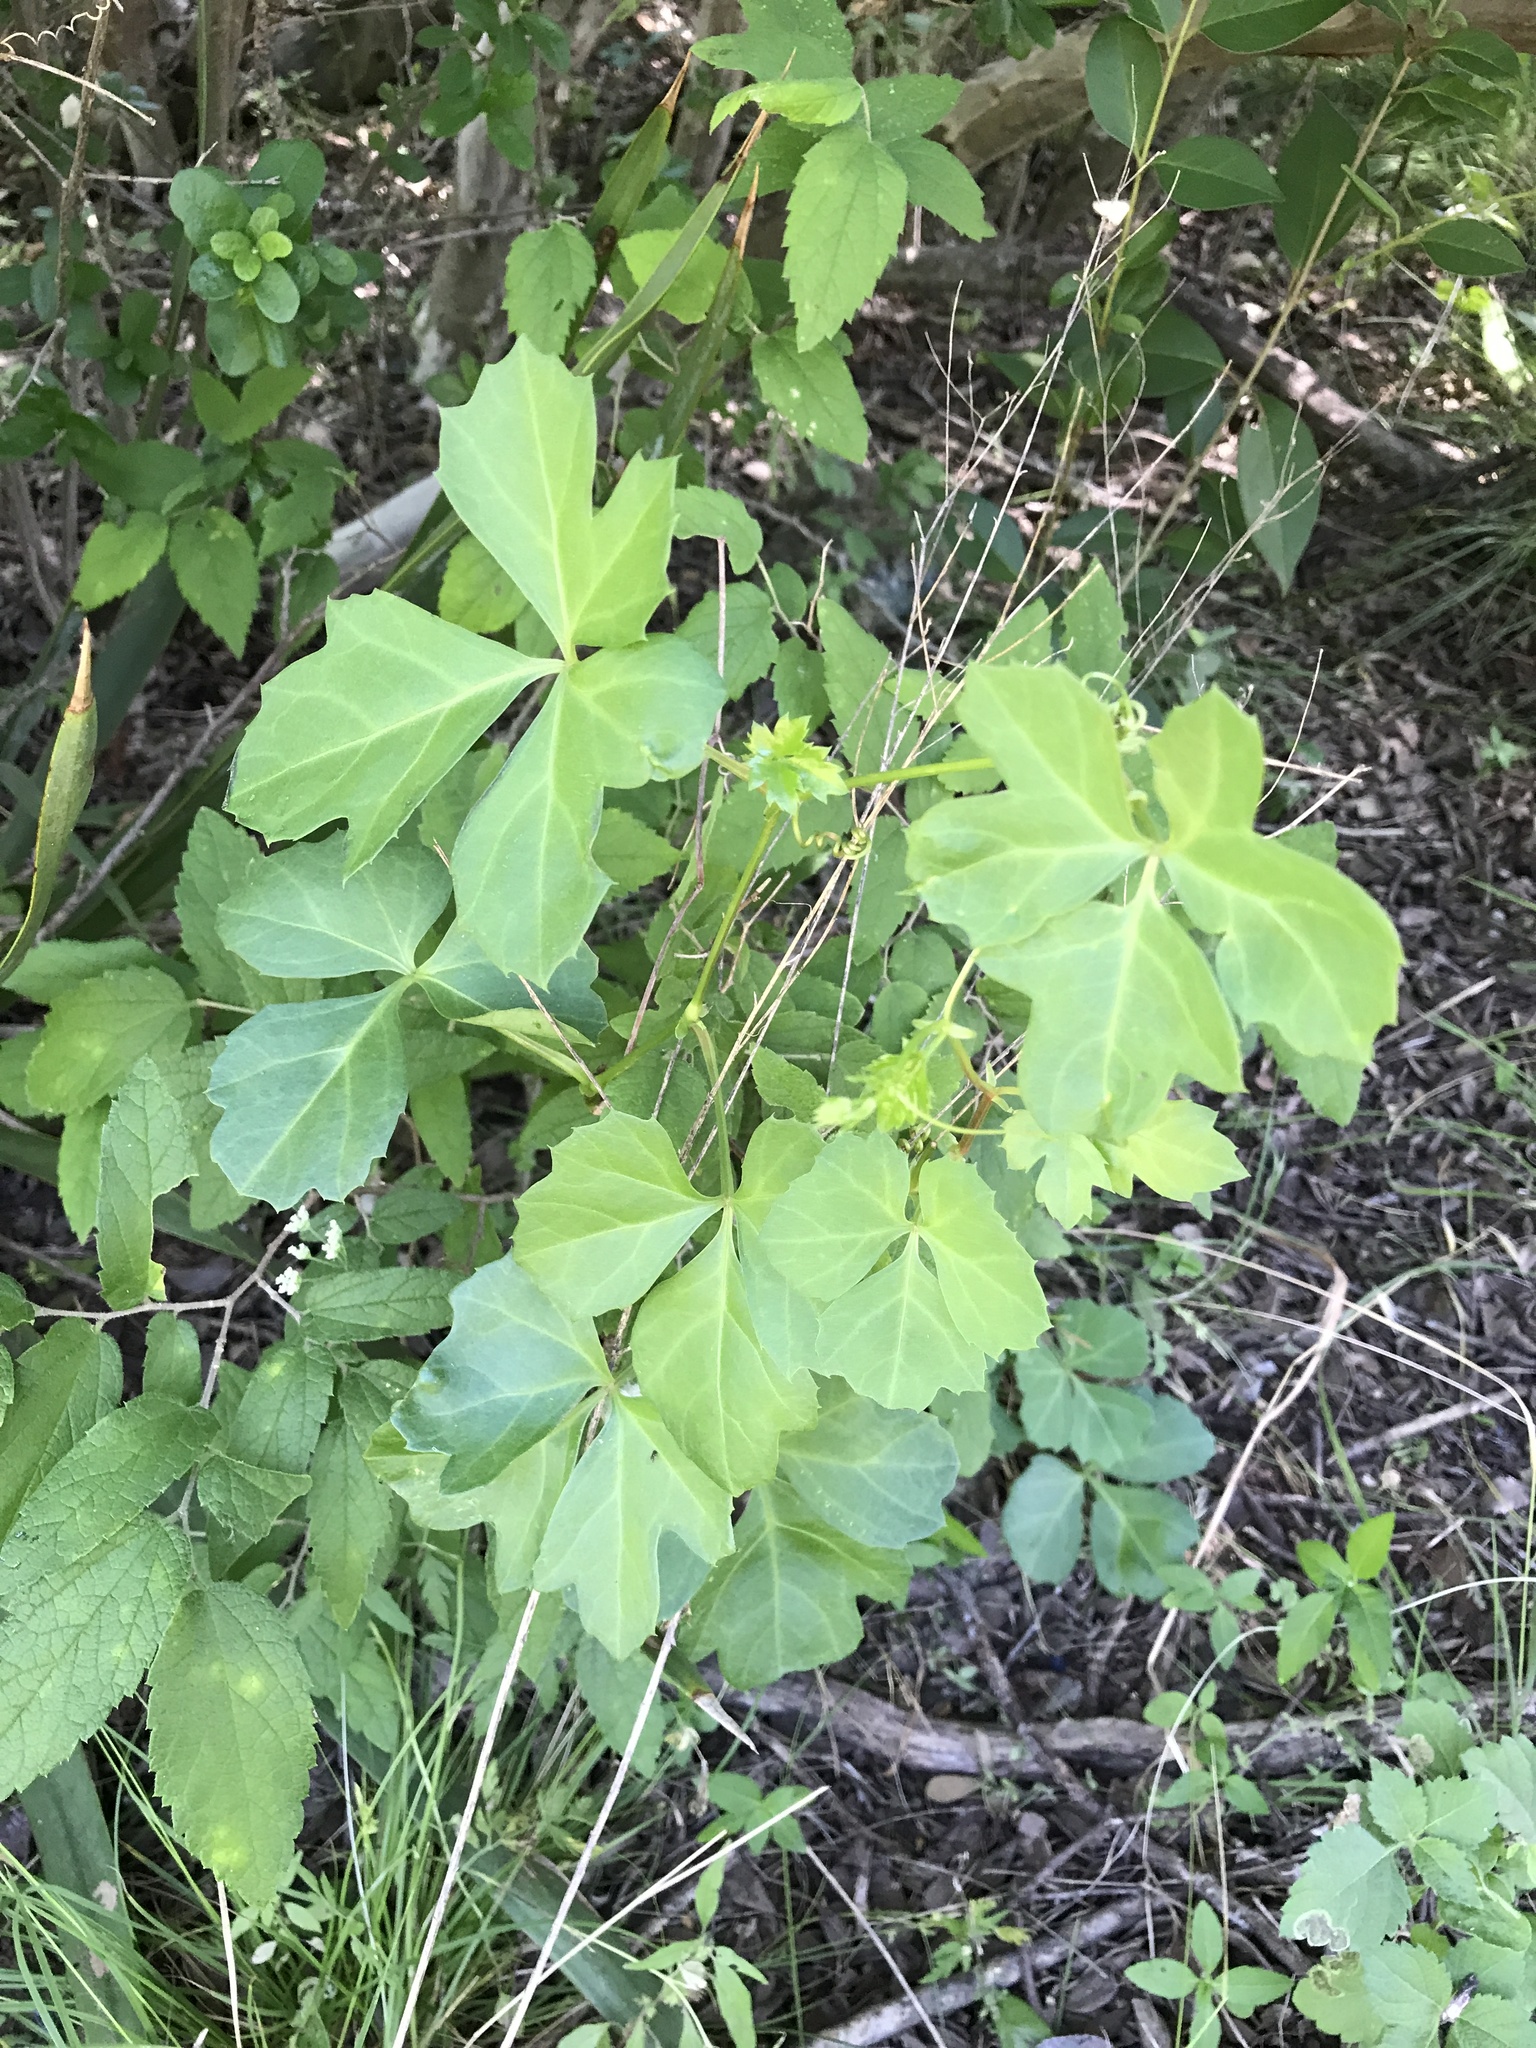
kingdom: Plantae
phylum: Tracheophyta
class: Magnoliopsida
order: Vitales
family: Vitaceae
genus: Cissus
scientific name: Cissus trifoliata
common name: Vine-sorrel
